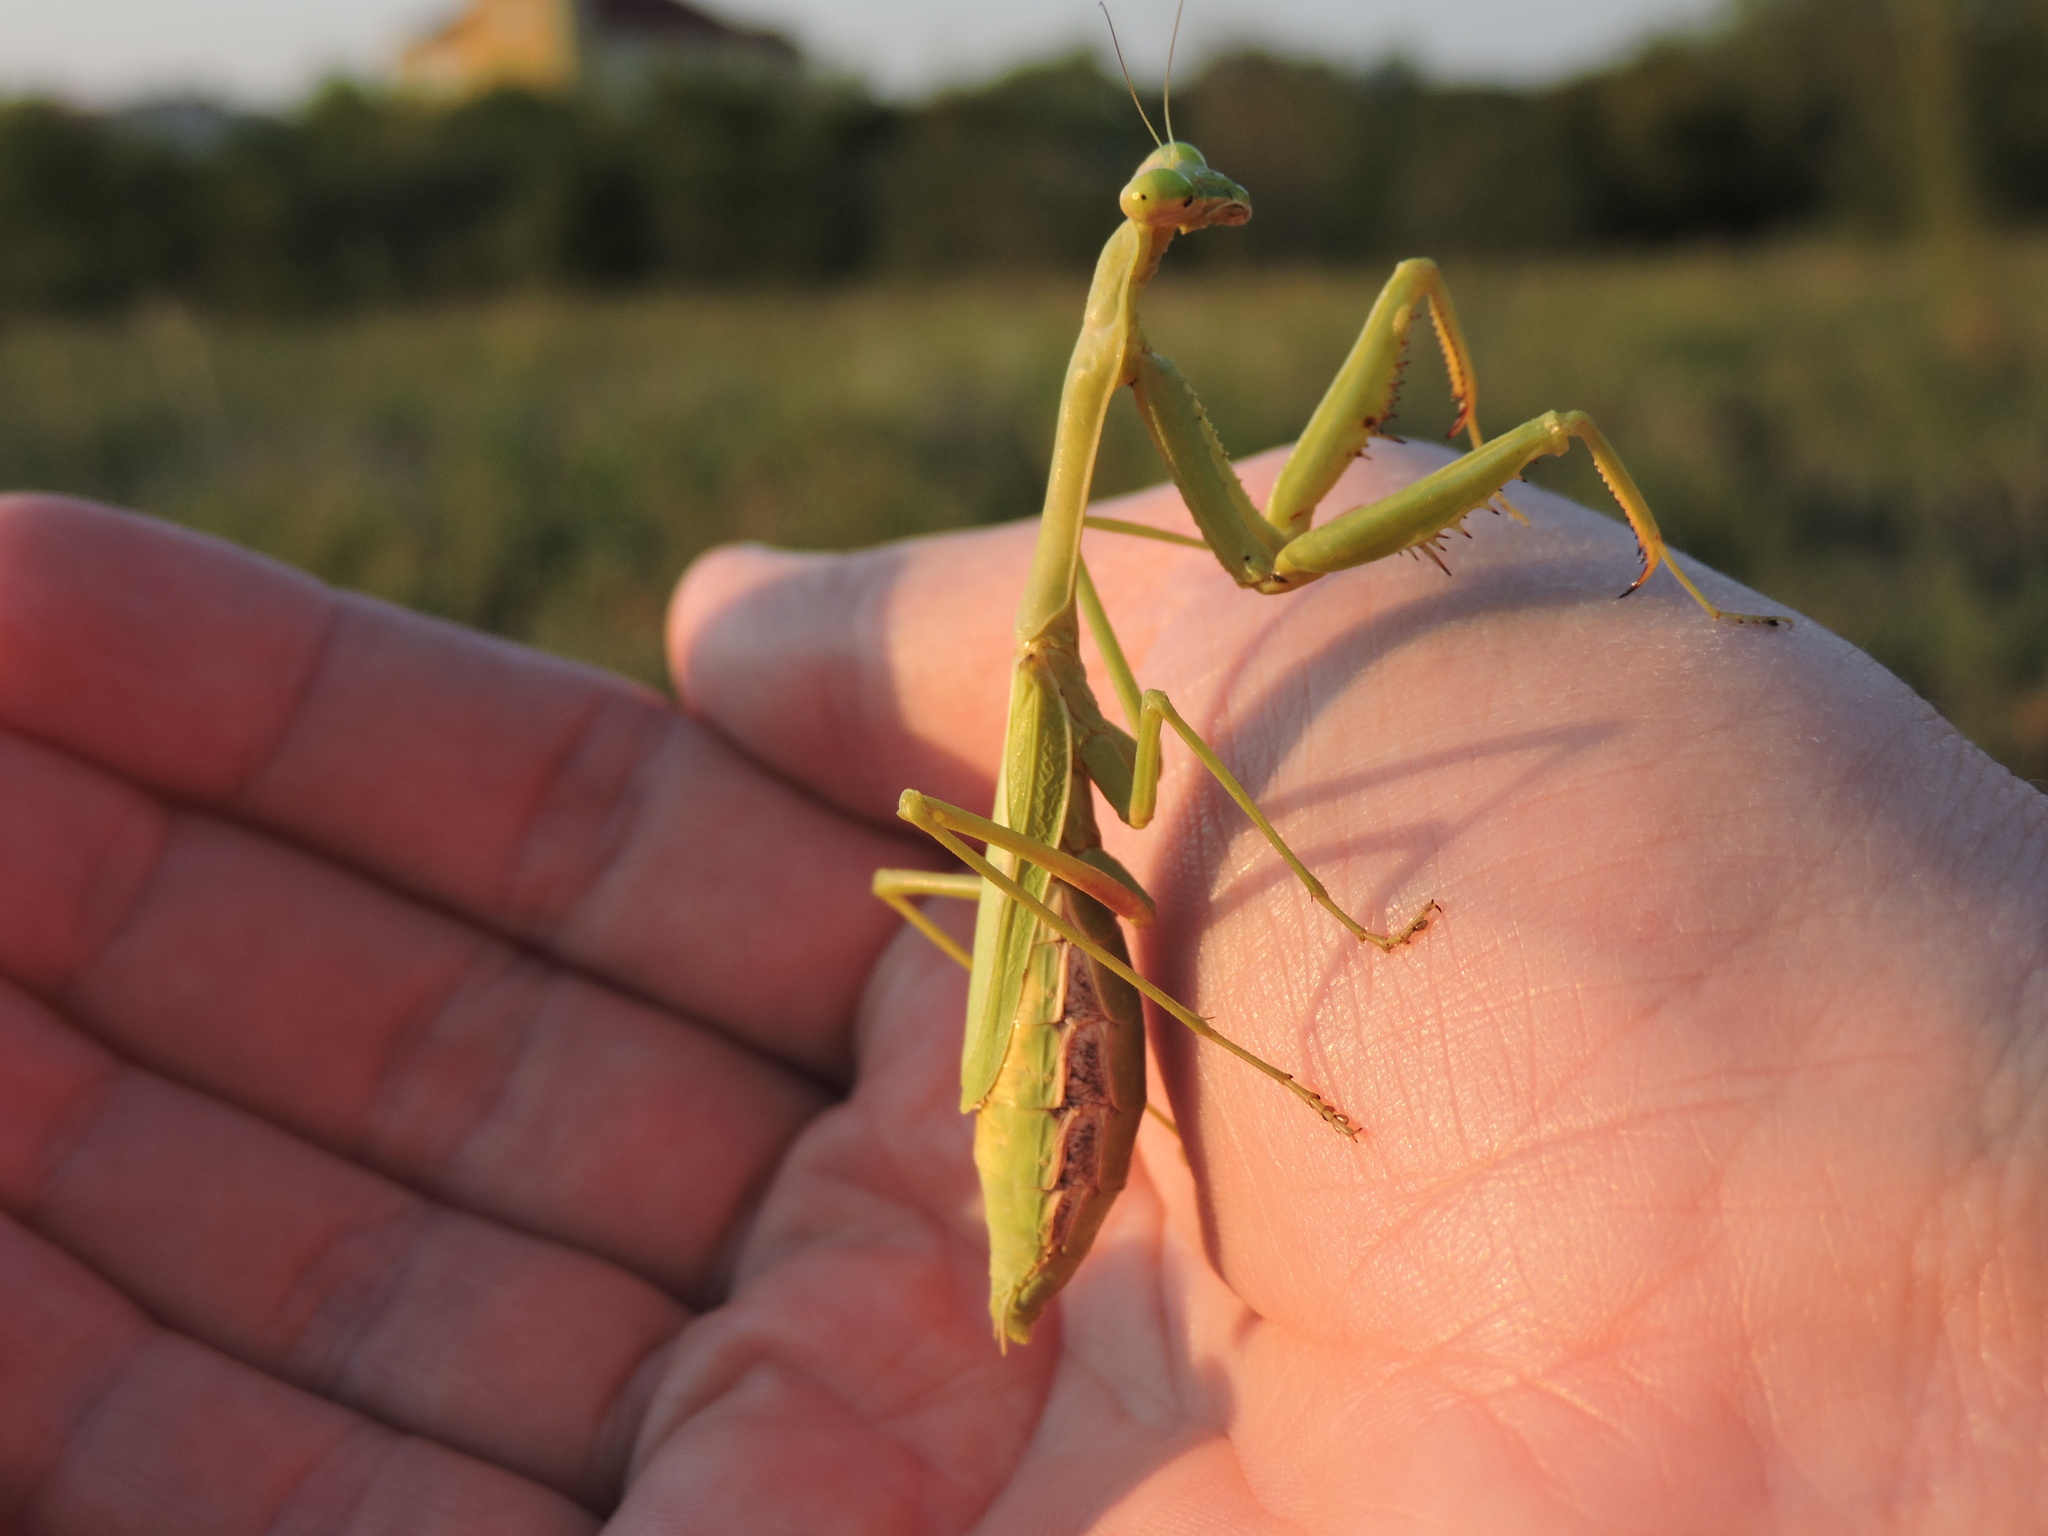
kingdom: Animalia
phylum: Arthropoda
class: Insecta
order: Mantodea
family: Mantidae
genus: Stagmomantis
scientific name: Stagmomantis carolina
